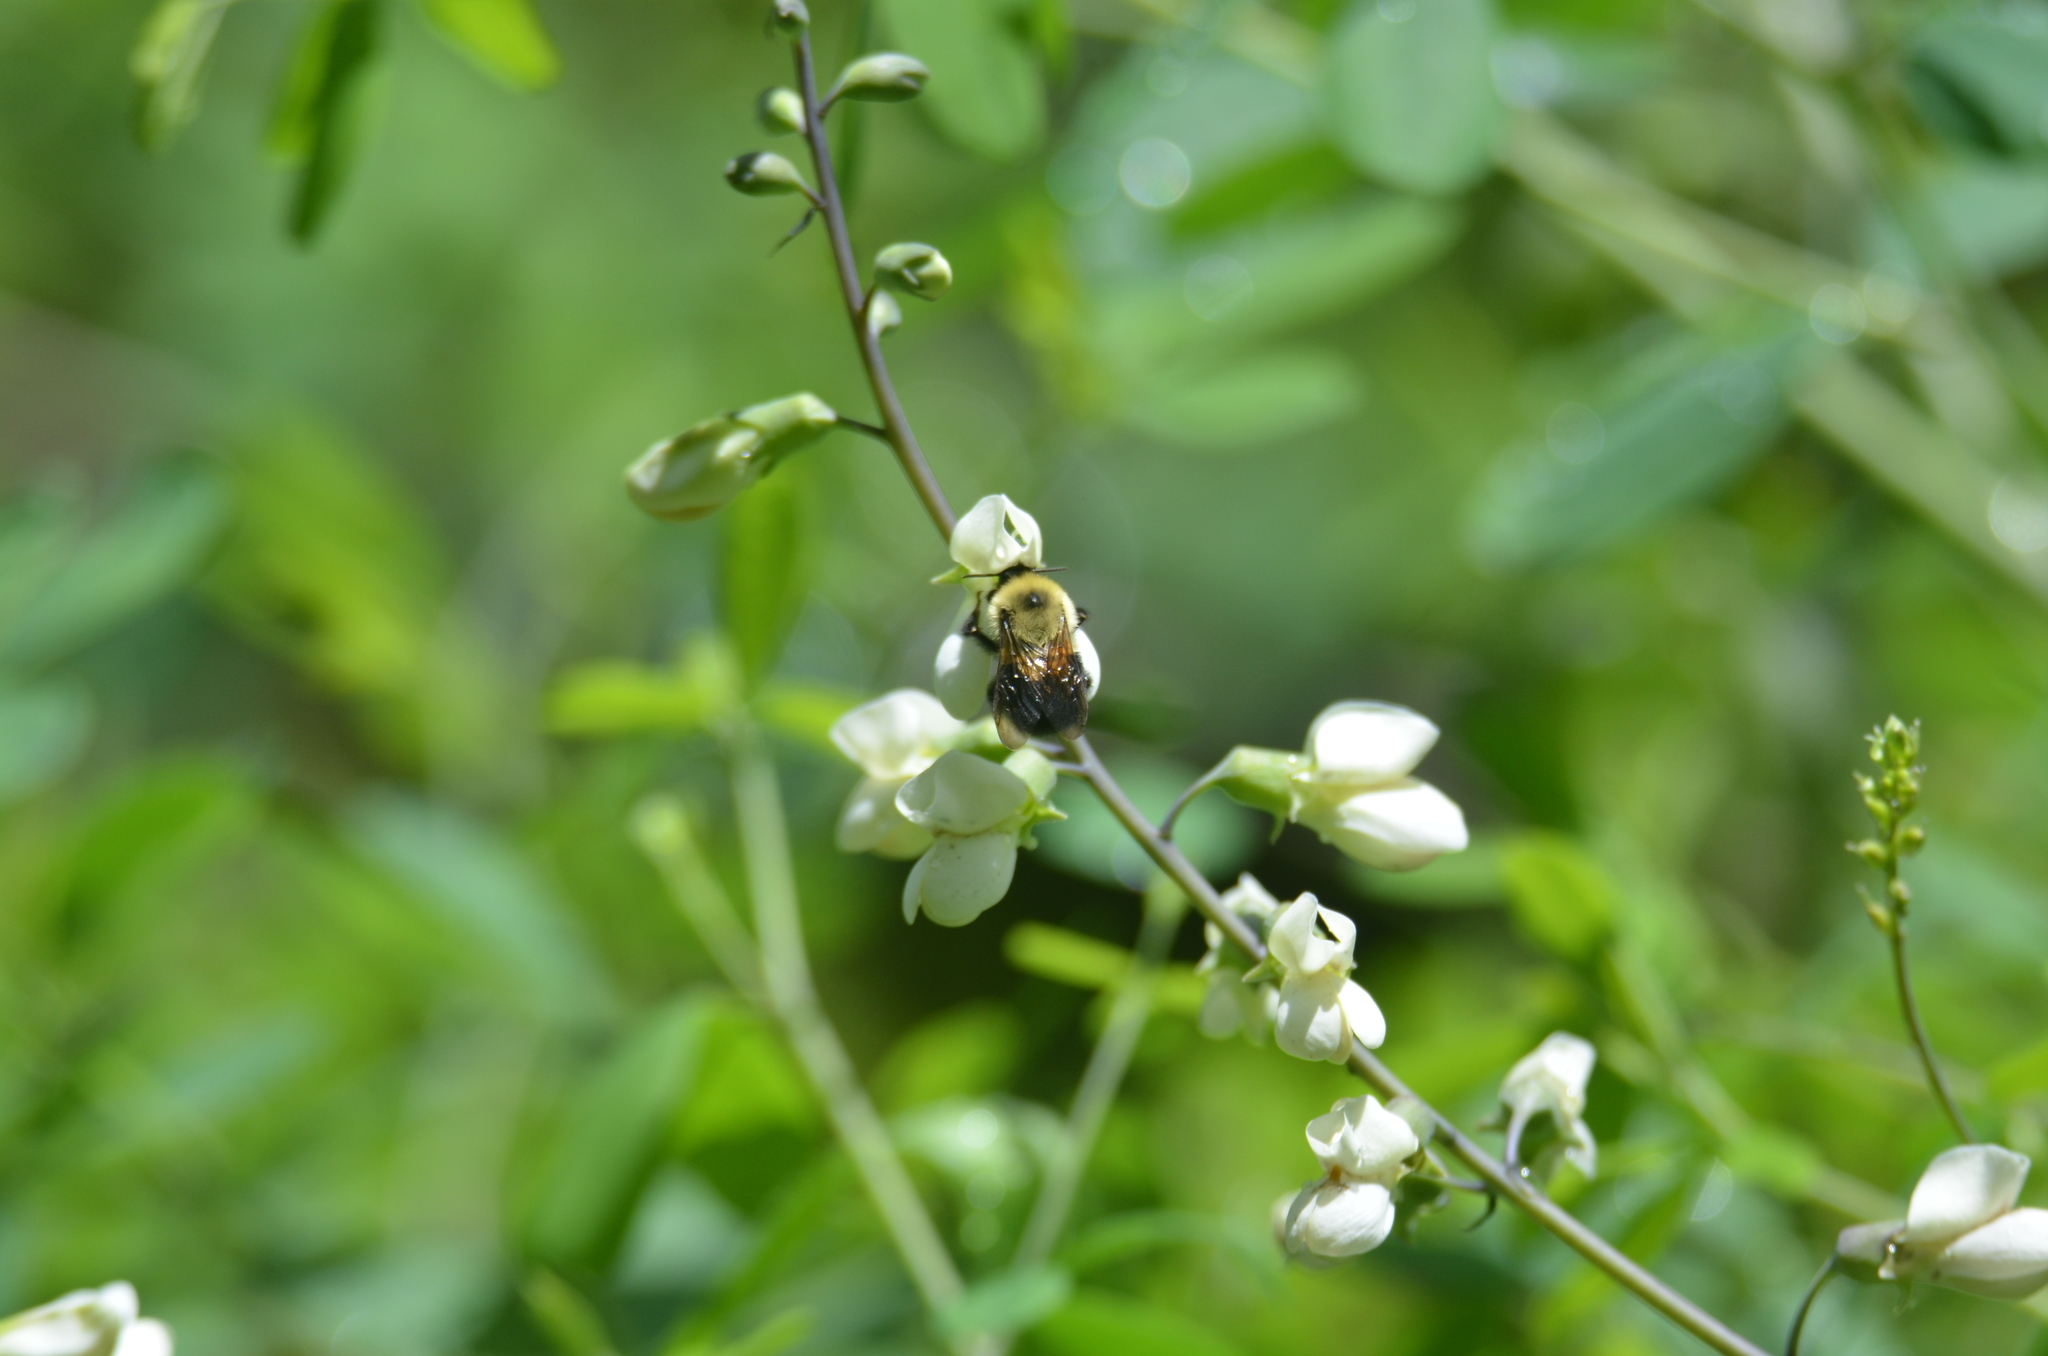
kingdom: Animalia
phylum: Arthropoda
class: Insecta
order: Hymenoptera
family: Apidae
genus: Bombus
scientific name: Bombus bimaculatus
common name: Two-spotted bumble bee
